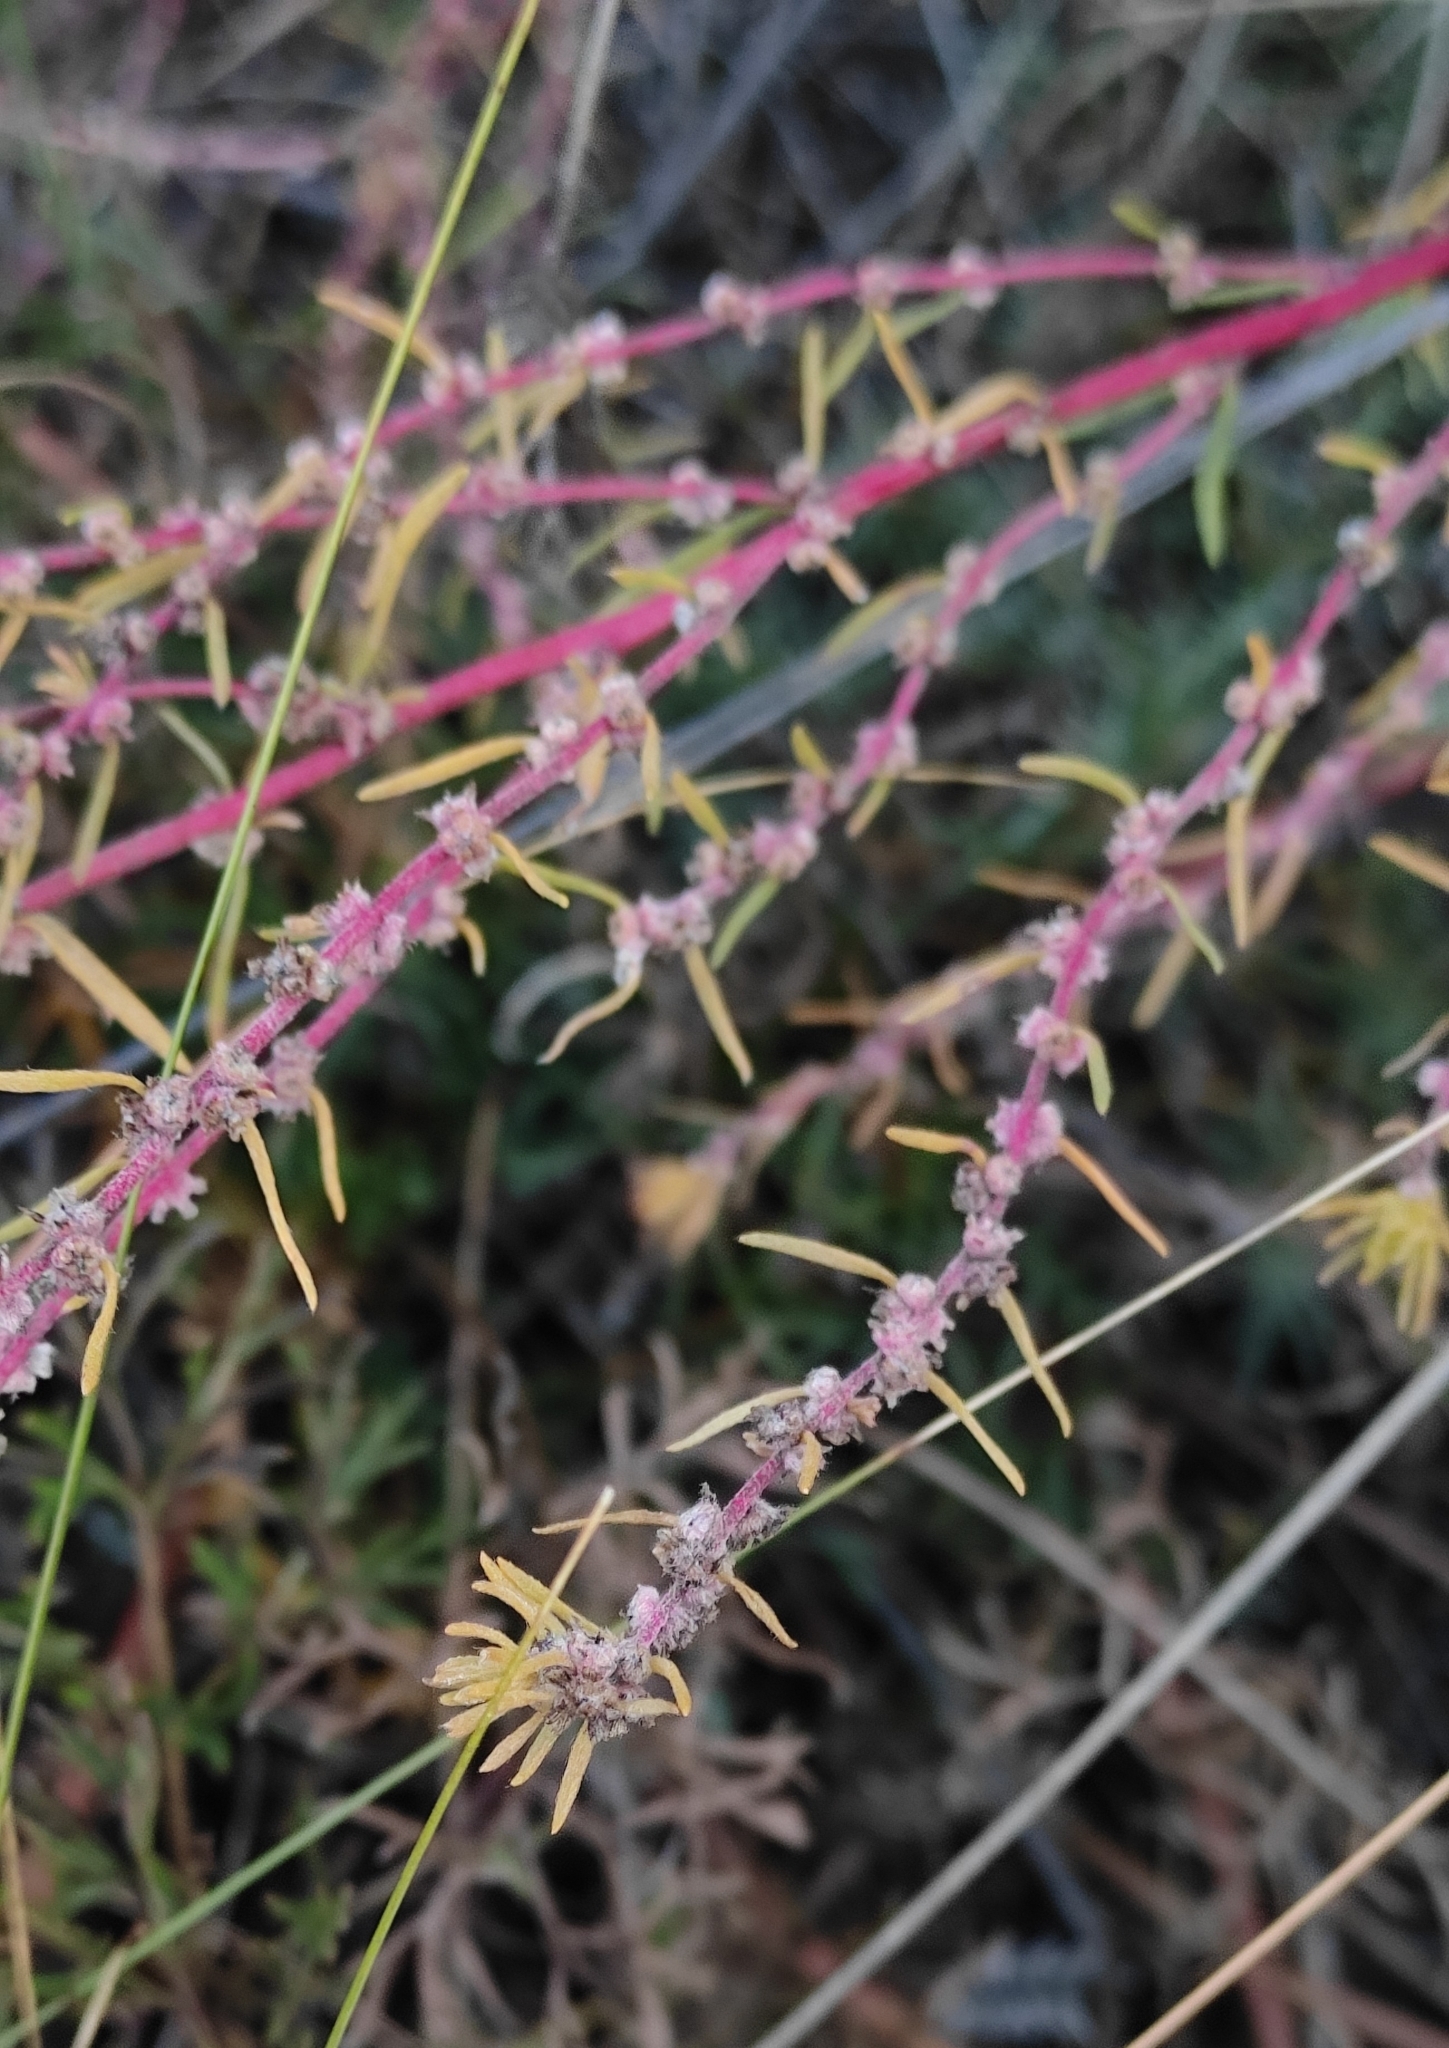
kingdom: Plantae
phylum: Tracheophyta
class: Magnoliopsida
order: Caryophyllales
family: Amaranthaceae
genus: Bassia
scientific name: Bassia prostrata
